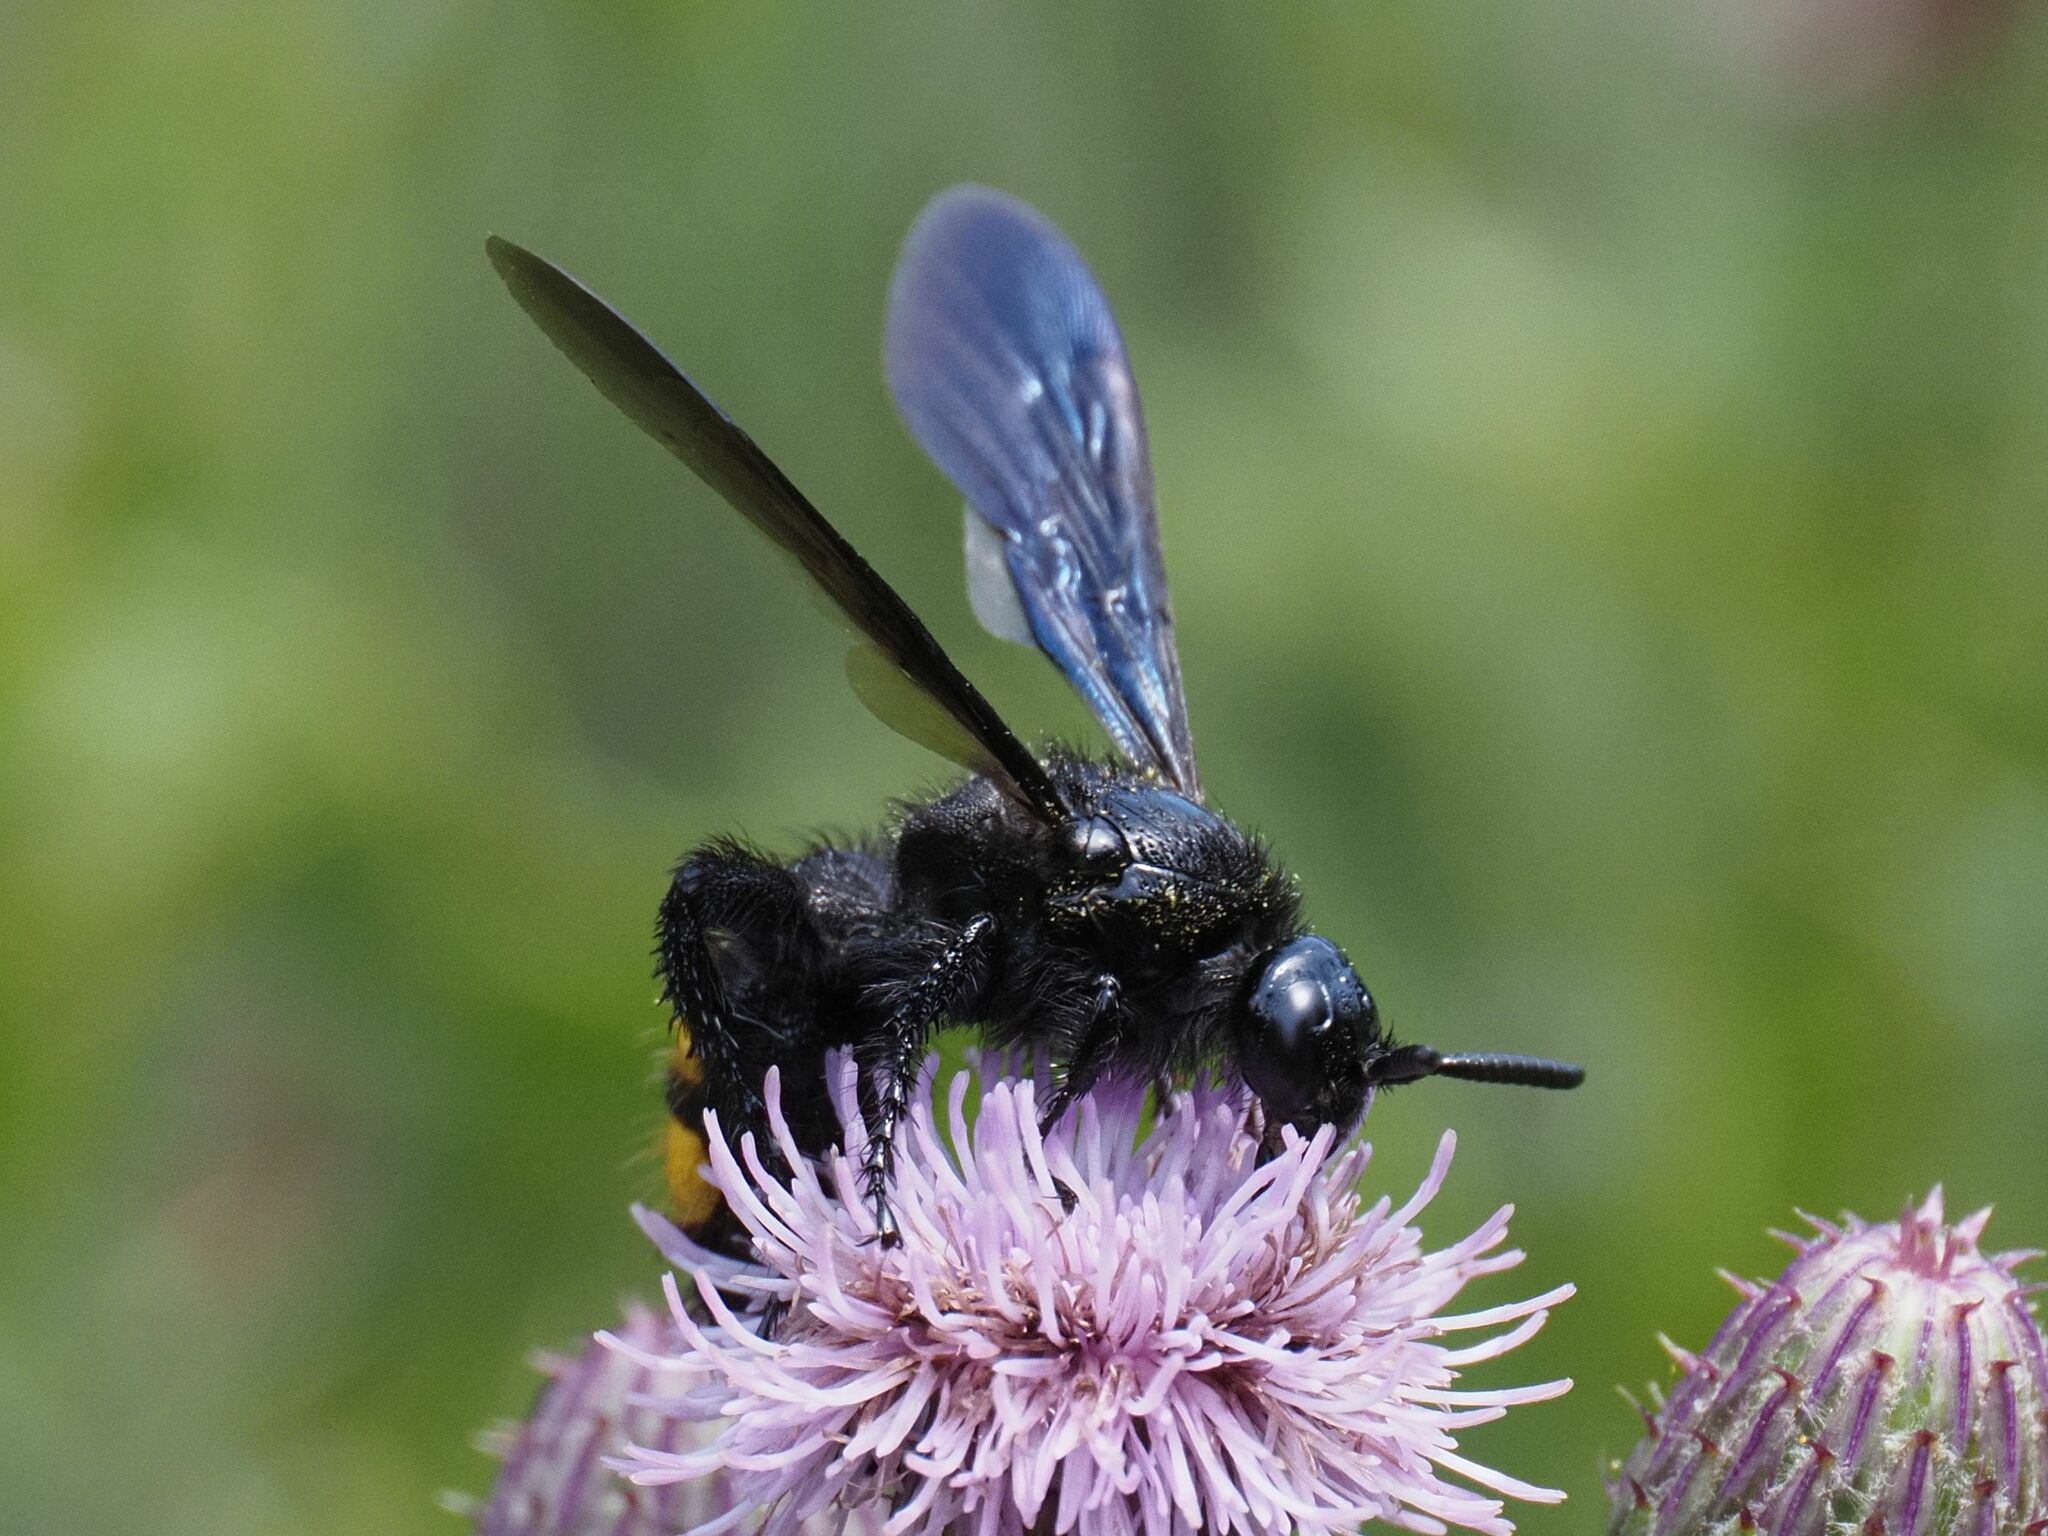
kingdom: Animalia
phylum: Arthropoda
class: Insecta
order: Hymenoptera
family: Scoliidae
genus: Scolia
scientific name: Scolia hirta
